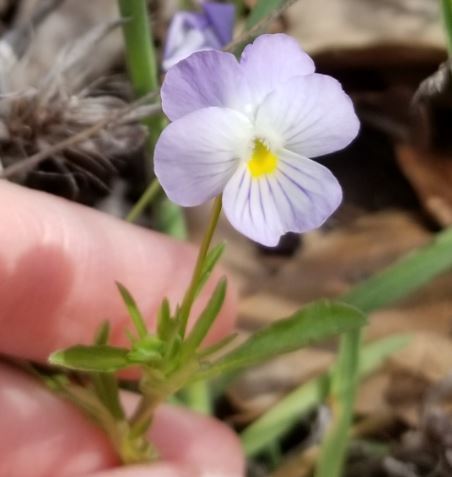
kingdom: Plantae
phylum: Tracheophyta
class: Magnoliopsida
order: Malpighiales
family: Violaceae
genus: Viola
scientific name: Viola rafinesquei
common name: American field pansy
